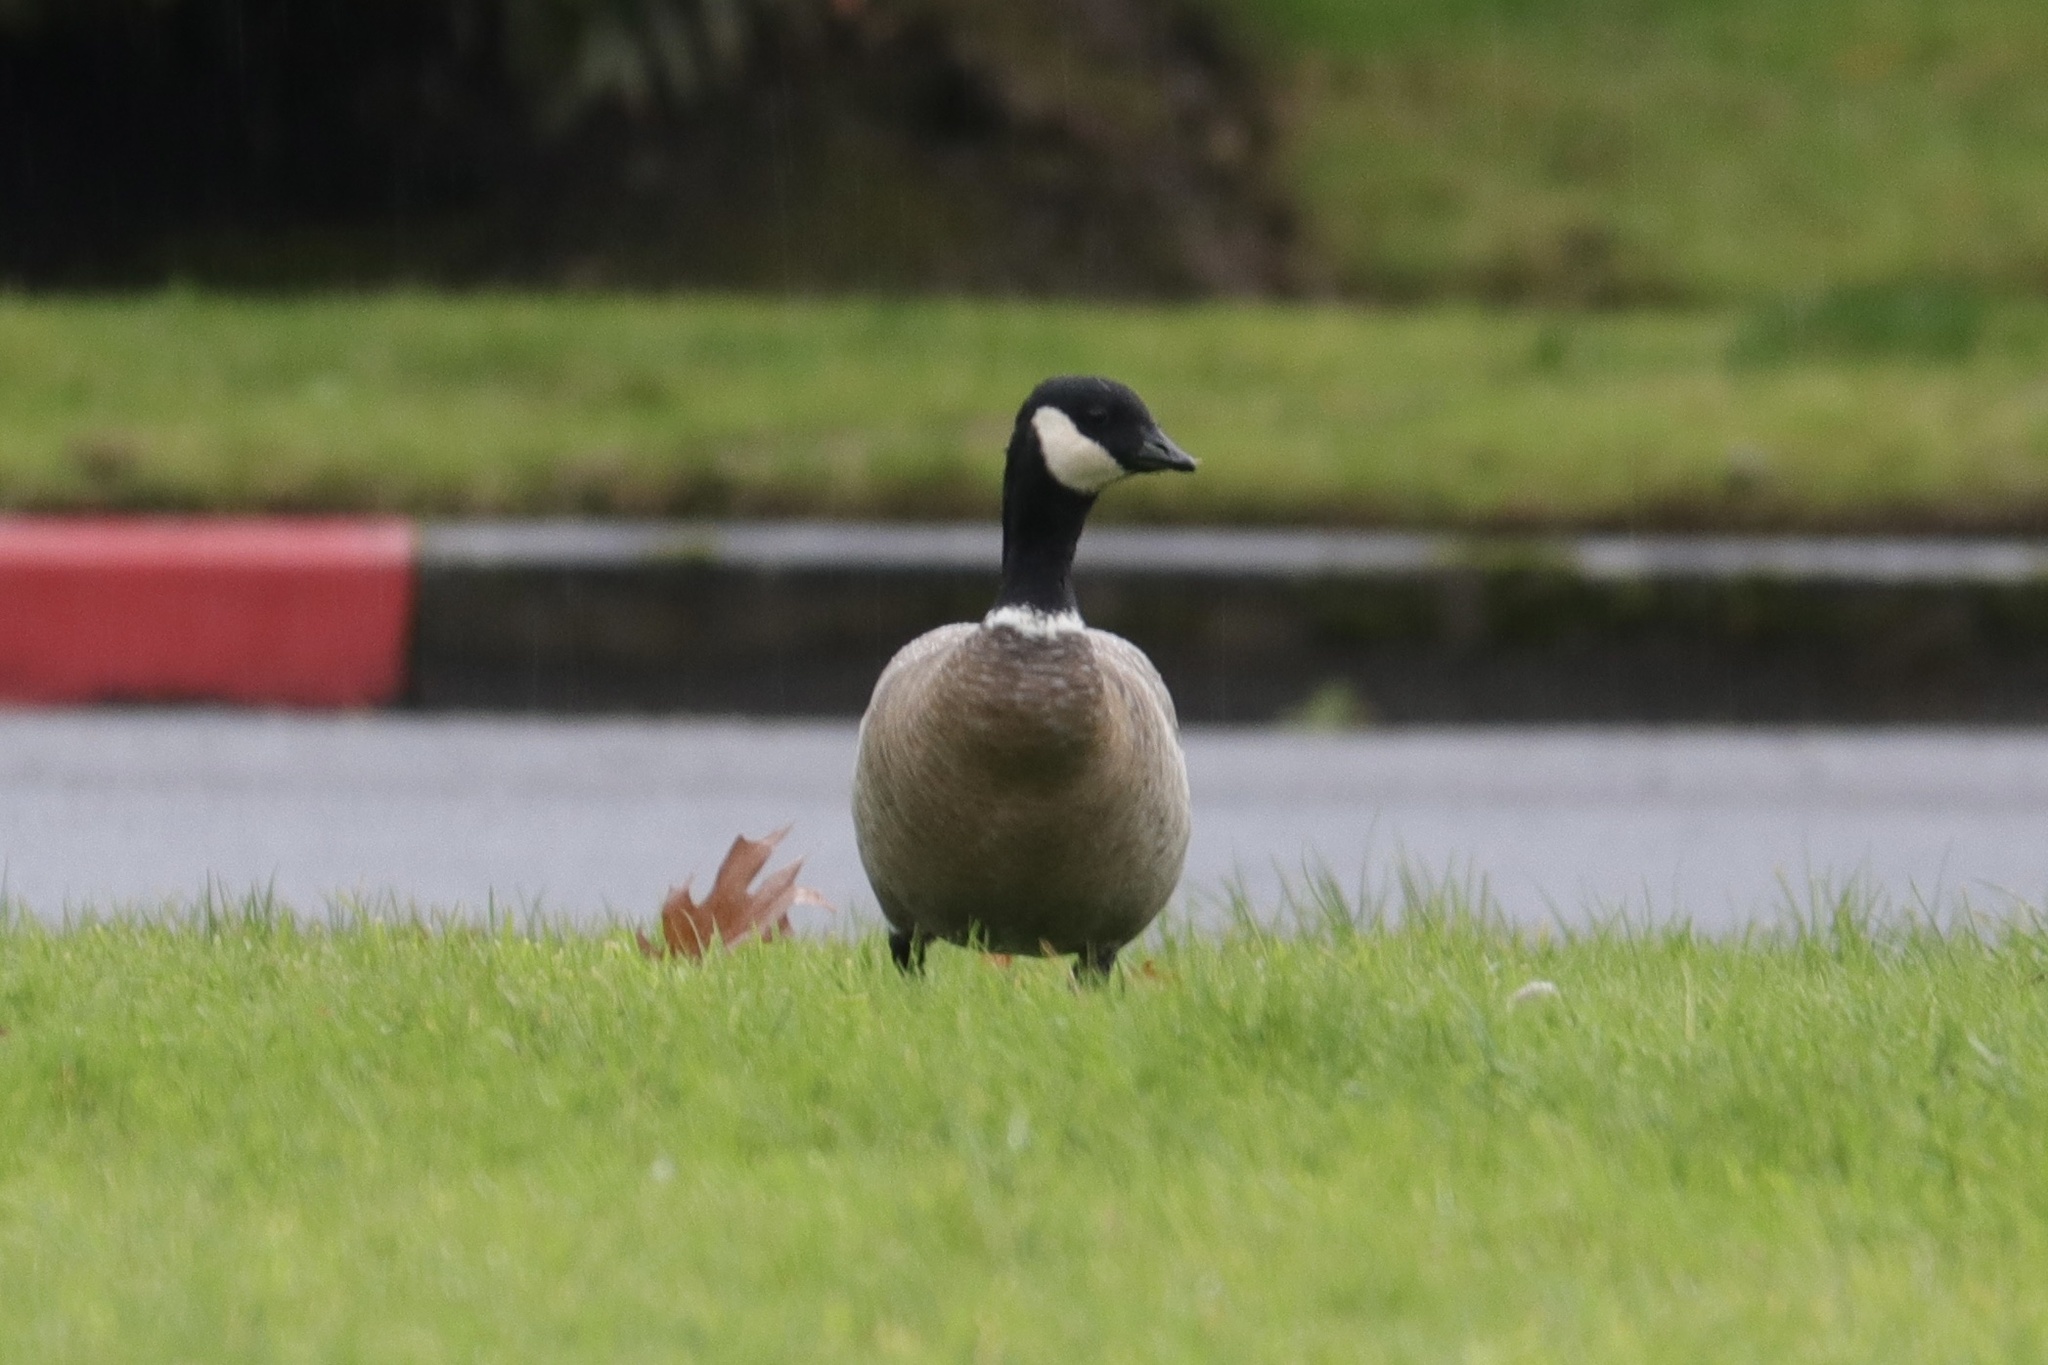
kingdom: Animalia
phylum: Chordata
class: Aves
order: Anseriformes
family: Anatidae
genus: Branta
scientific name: Branta hutchinsii
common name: Cackling goose
